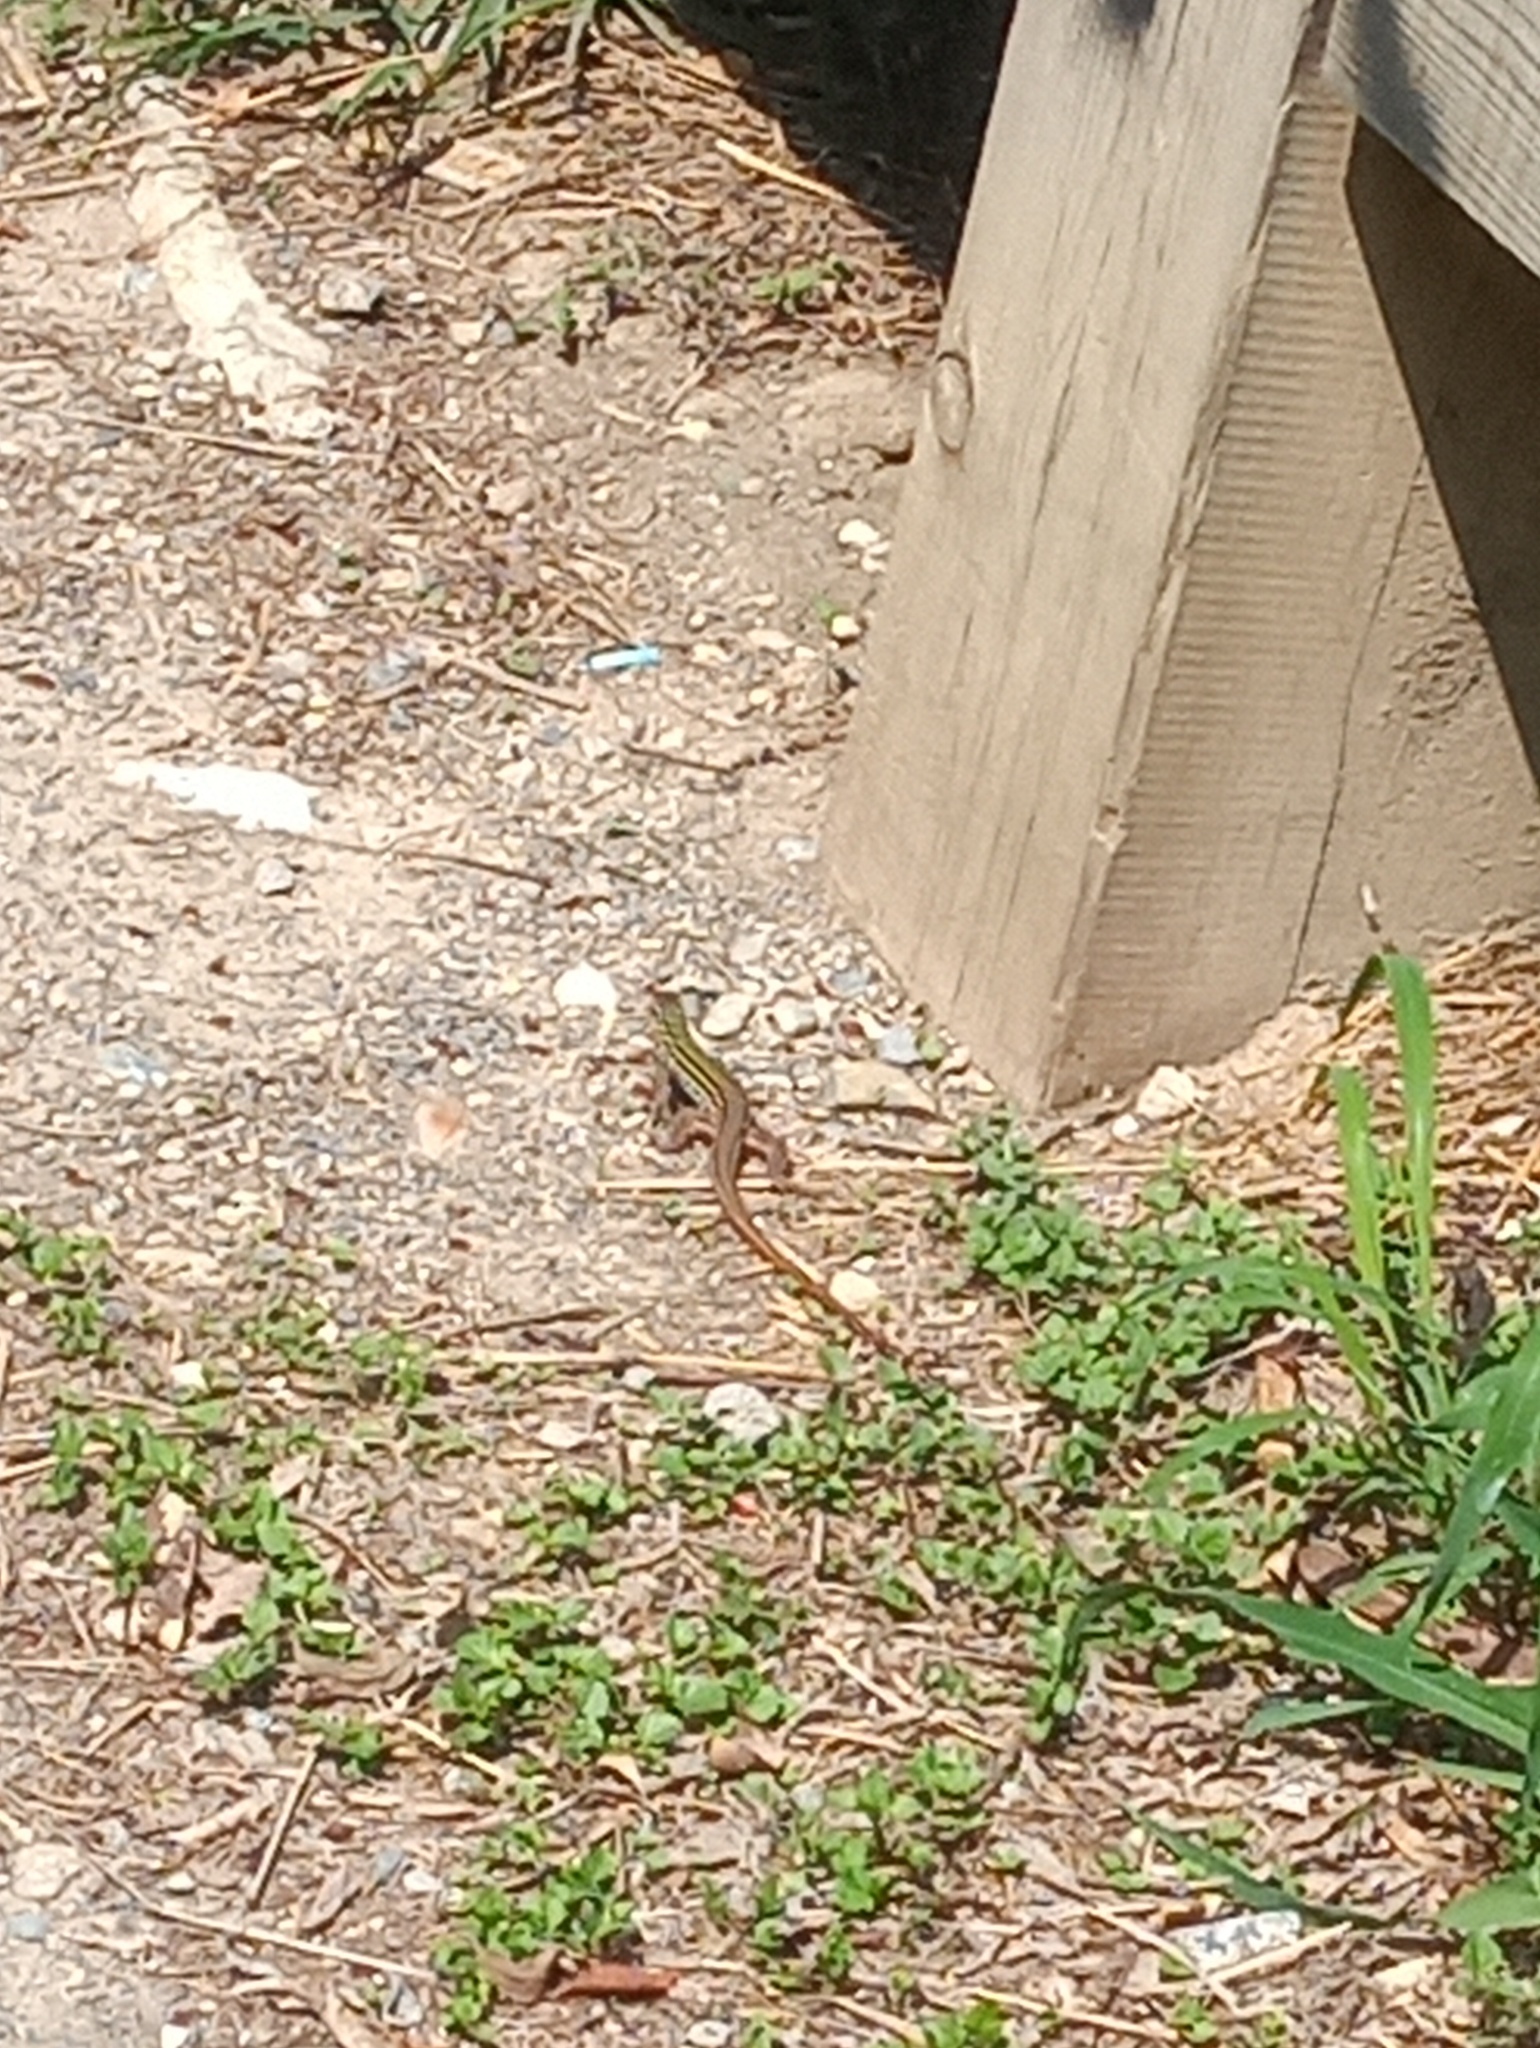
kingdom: Animalia
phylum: Chordata
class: Squamata
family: Teiidae
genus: Aspidoscelis
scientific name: Aspidoscelis gularis
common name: Eastern spotted whiptail
